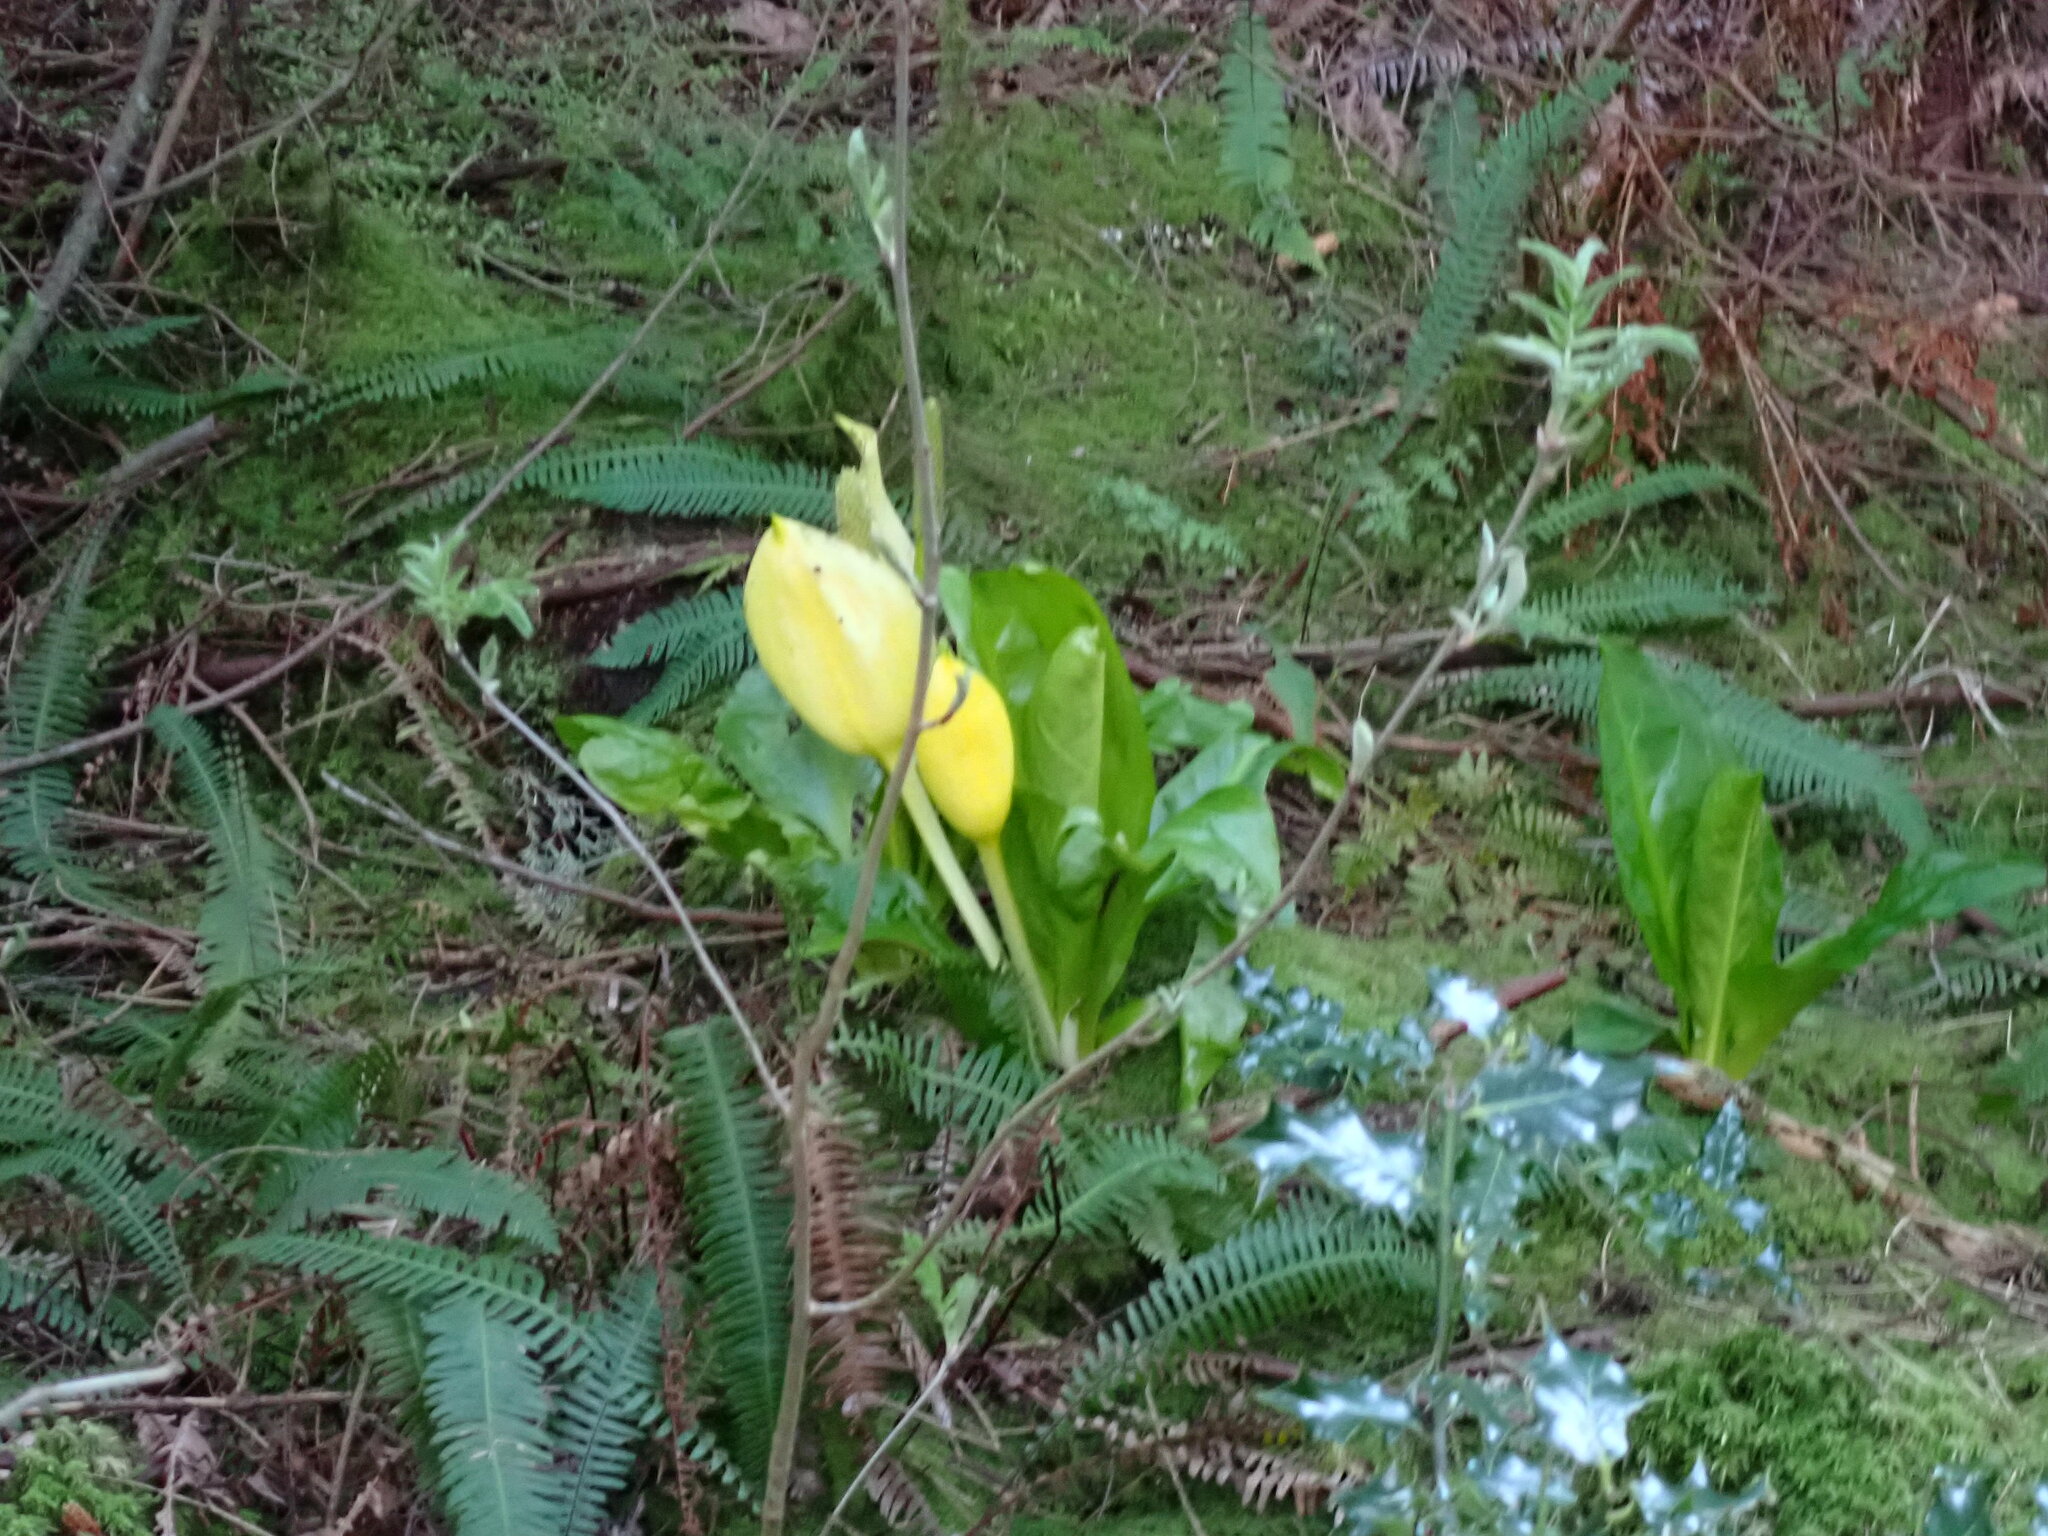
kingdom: Plantae
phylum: Tracheophyta
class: Liliopsida
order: Alismatales
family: Araceae
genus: Lysichiton
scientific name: Lysichiton americanus
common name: American skunk cabbage
